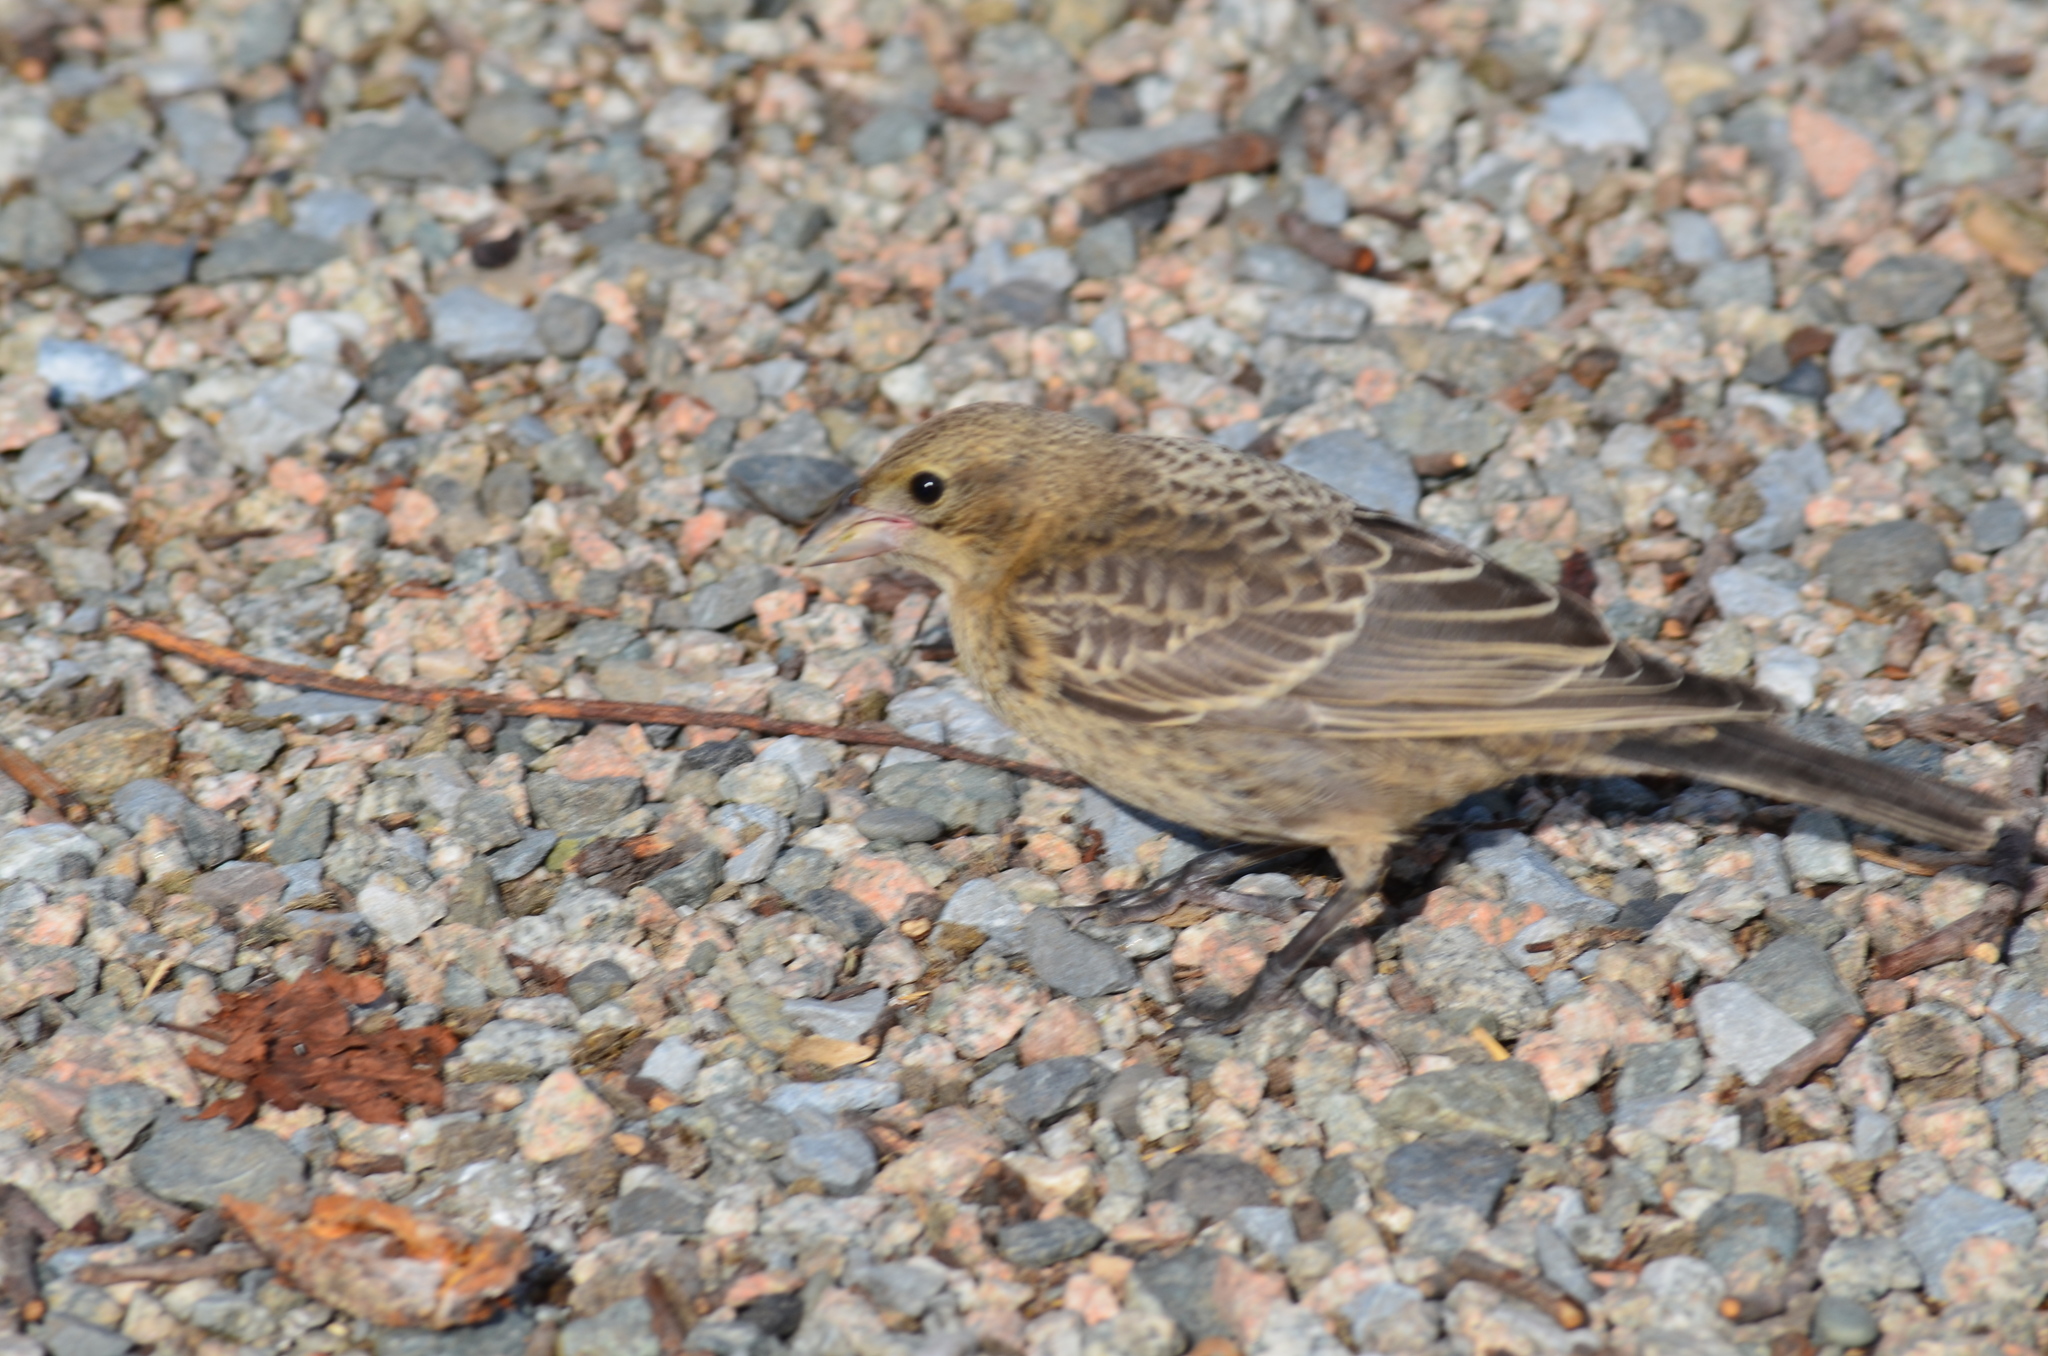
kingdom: Animalia
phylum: Chordata
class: Aves
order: Passeriformes
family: Icteridae
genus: Molothrus
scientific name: Molothrus ater
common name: Brown-headed cowbird
